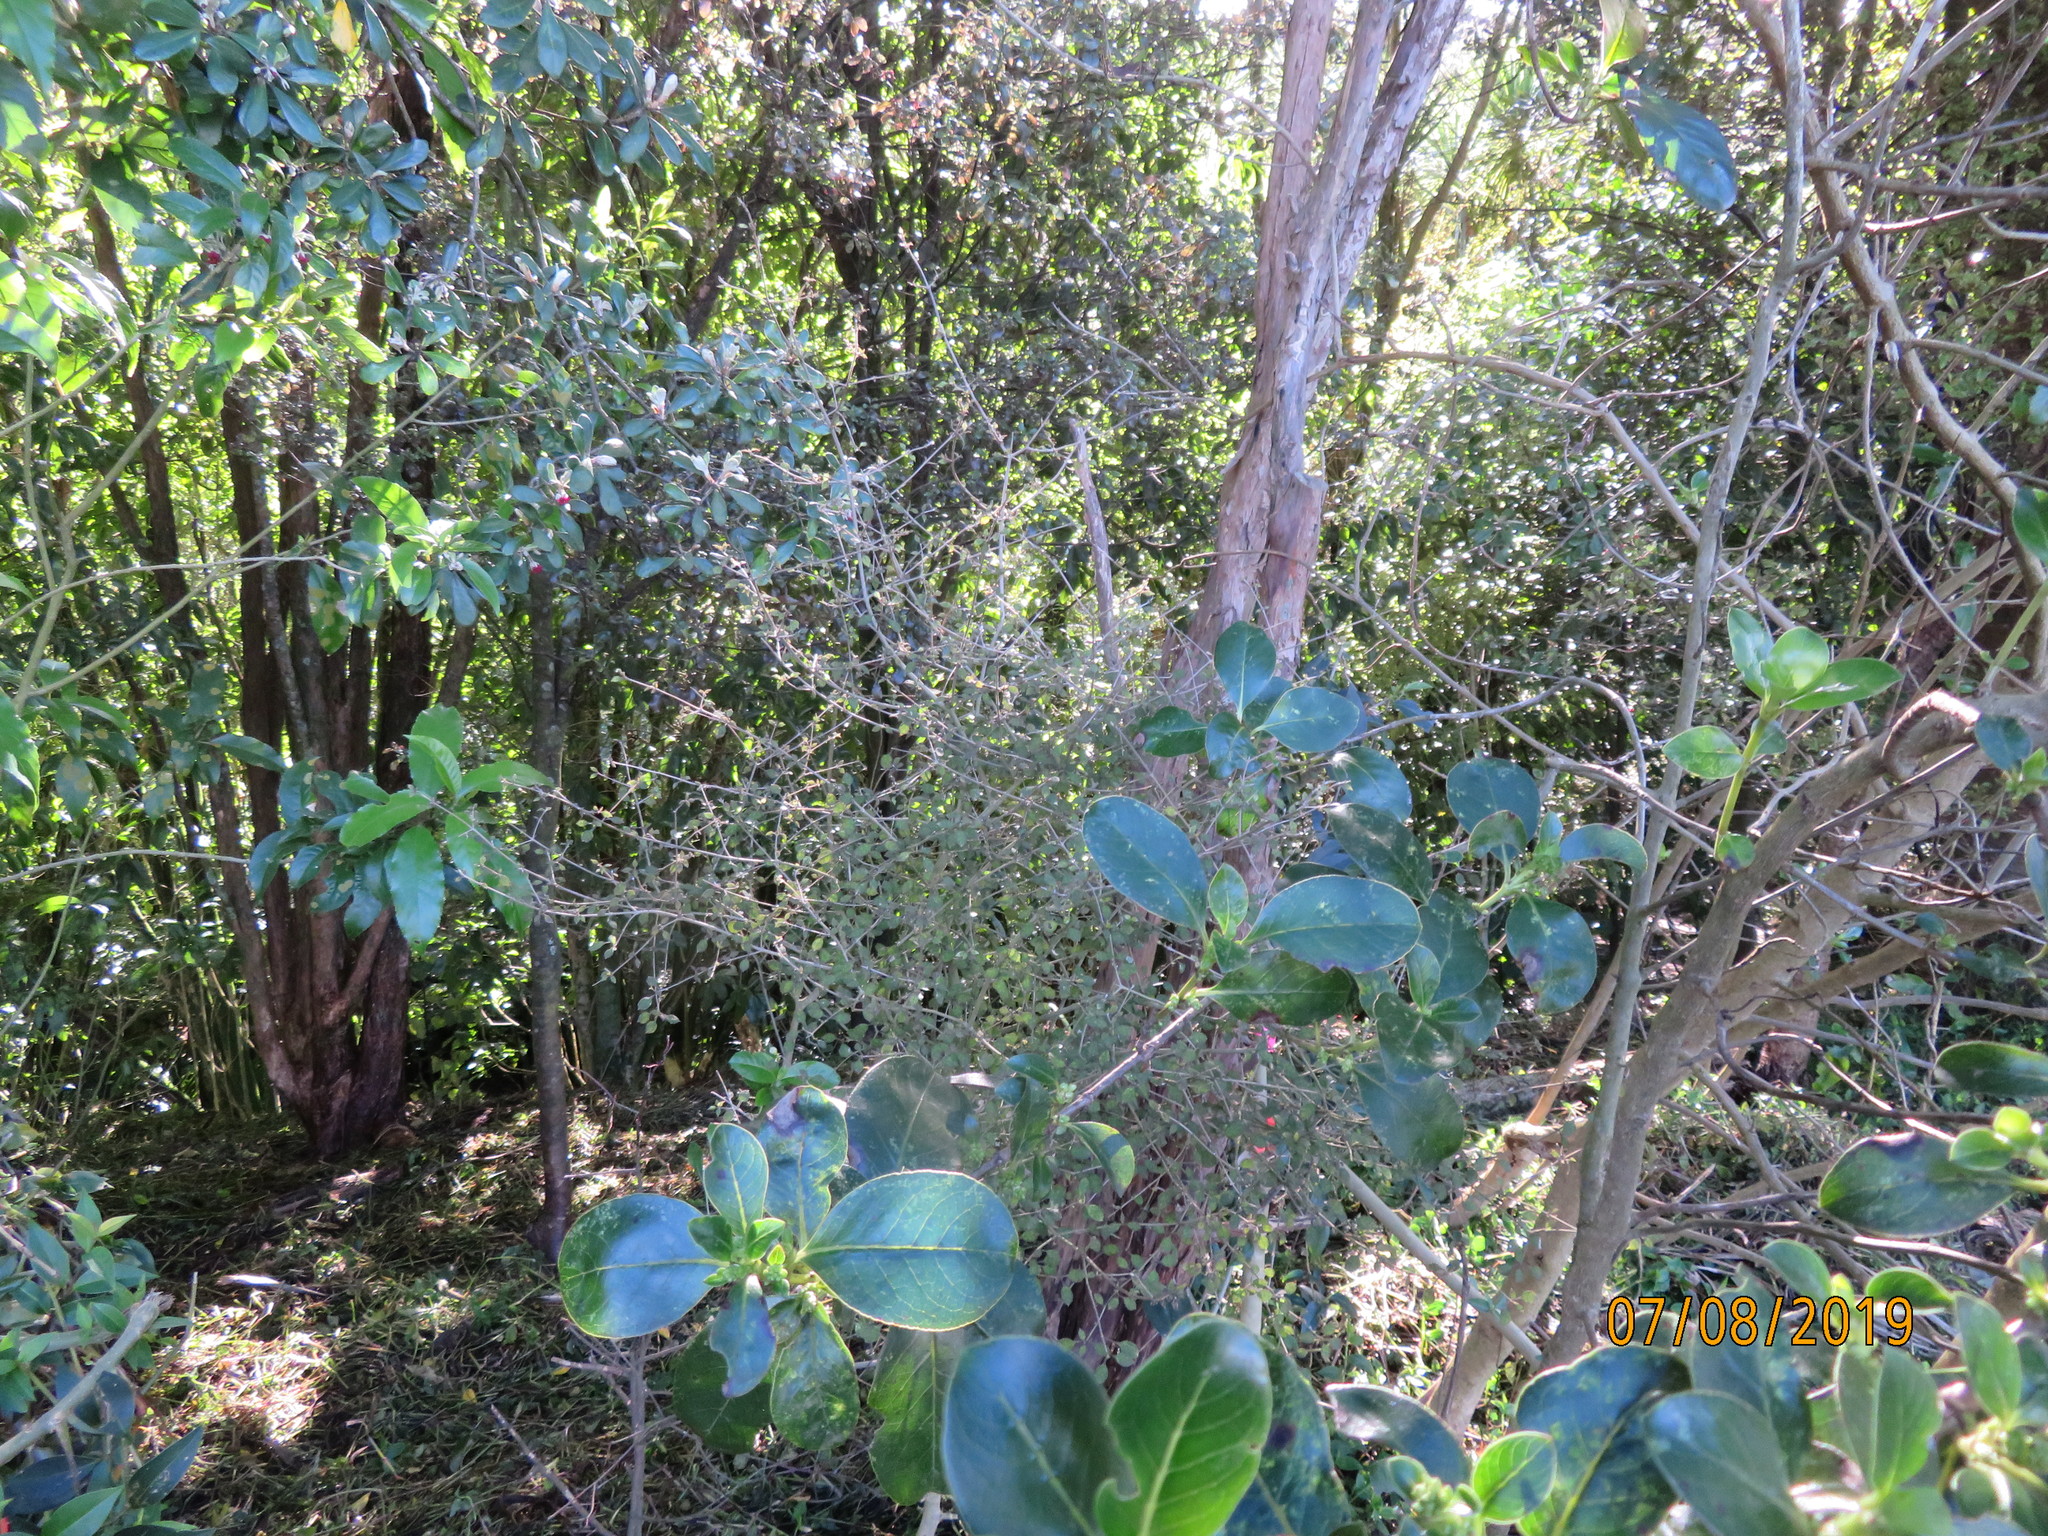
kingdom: Plantae
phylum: Tracheophyta
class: Magnoliopsida
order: Gentianales
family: Rubiaceae
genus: Coprosma
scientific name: Coprosma areolata
